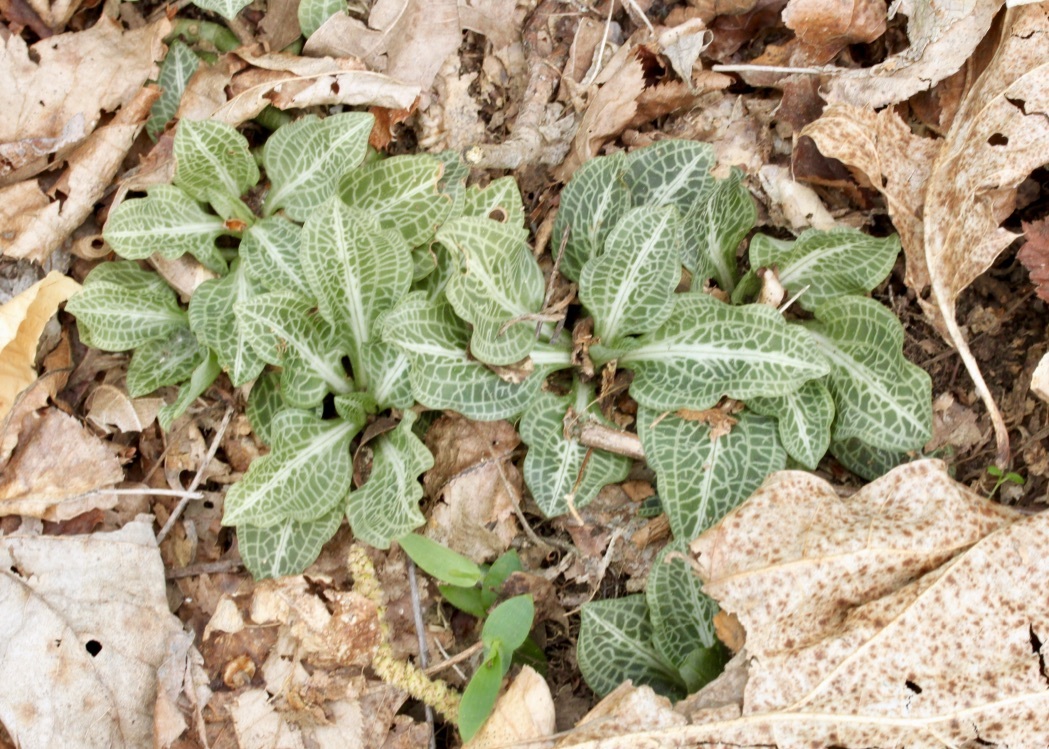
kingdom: Plantae
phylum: Tracheophyta
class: Liliopsida
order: Asparagales
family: Orchidaceae
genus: Goodyera
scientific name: Goodyera pubescens
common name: Downy rattlesnake-plantain
